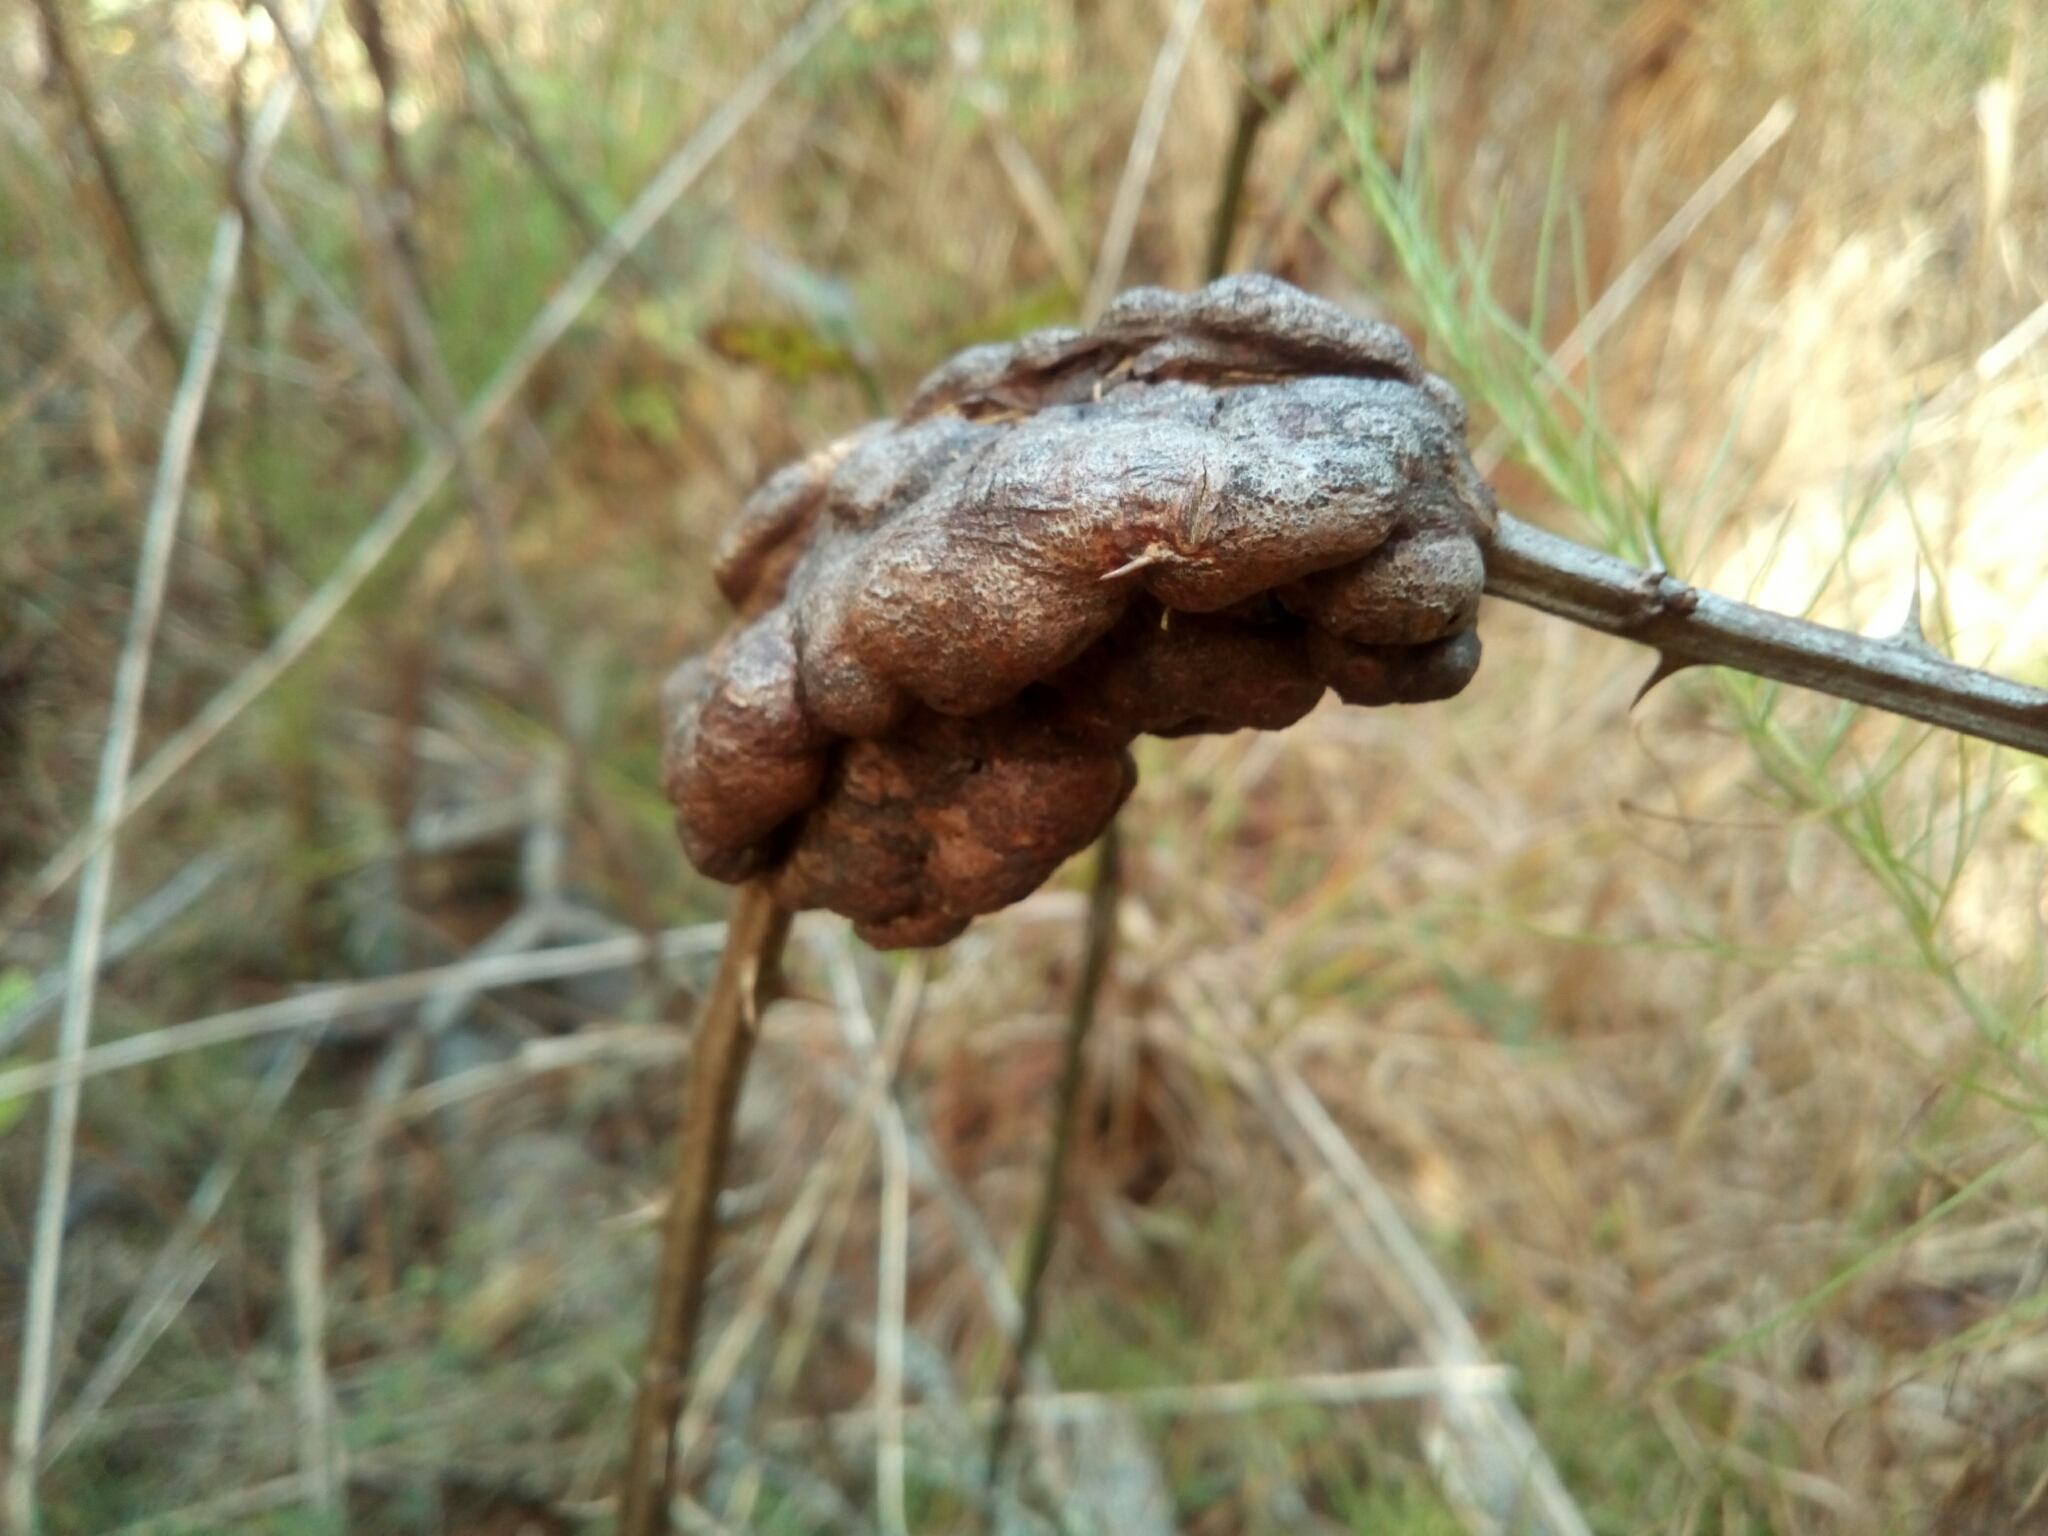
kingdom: Animalia
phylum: Arthropoda
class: Insecta
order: Hymenoptera
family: Cynipidae
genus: Diastrophus
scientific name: Diastrophus
